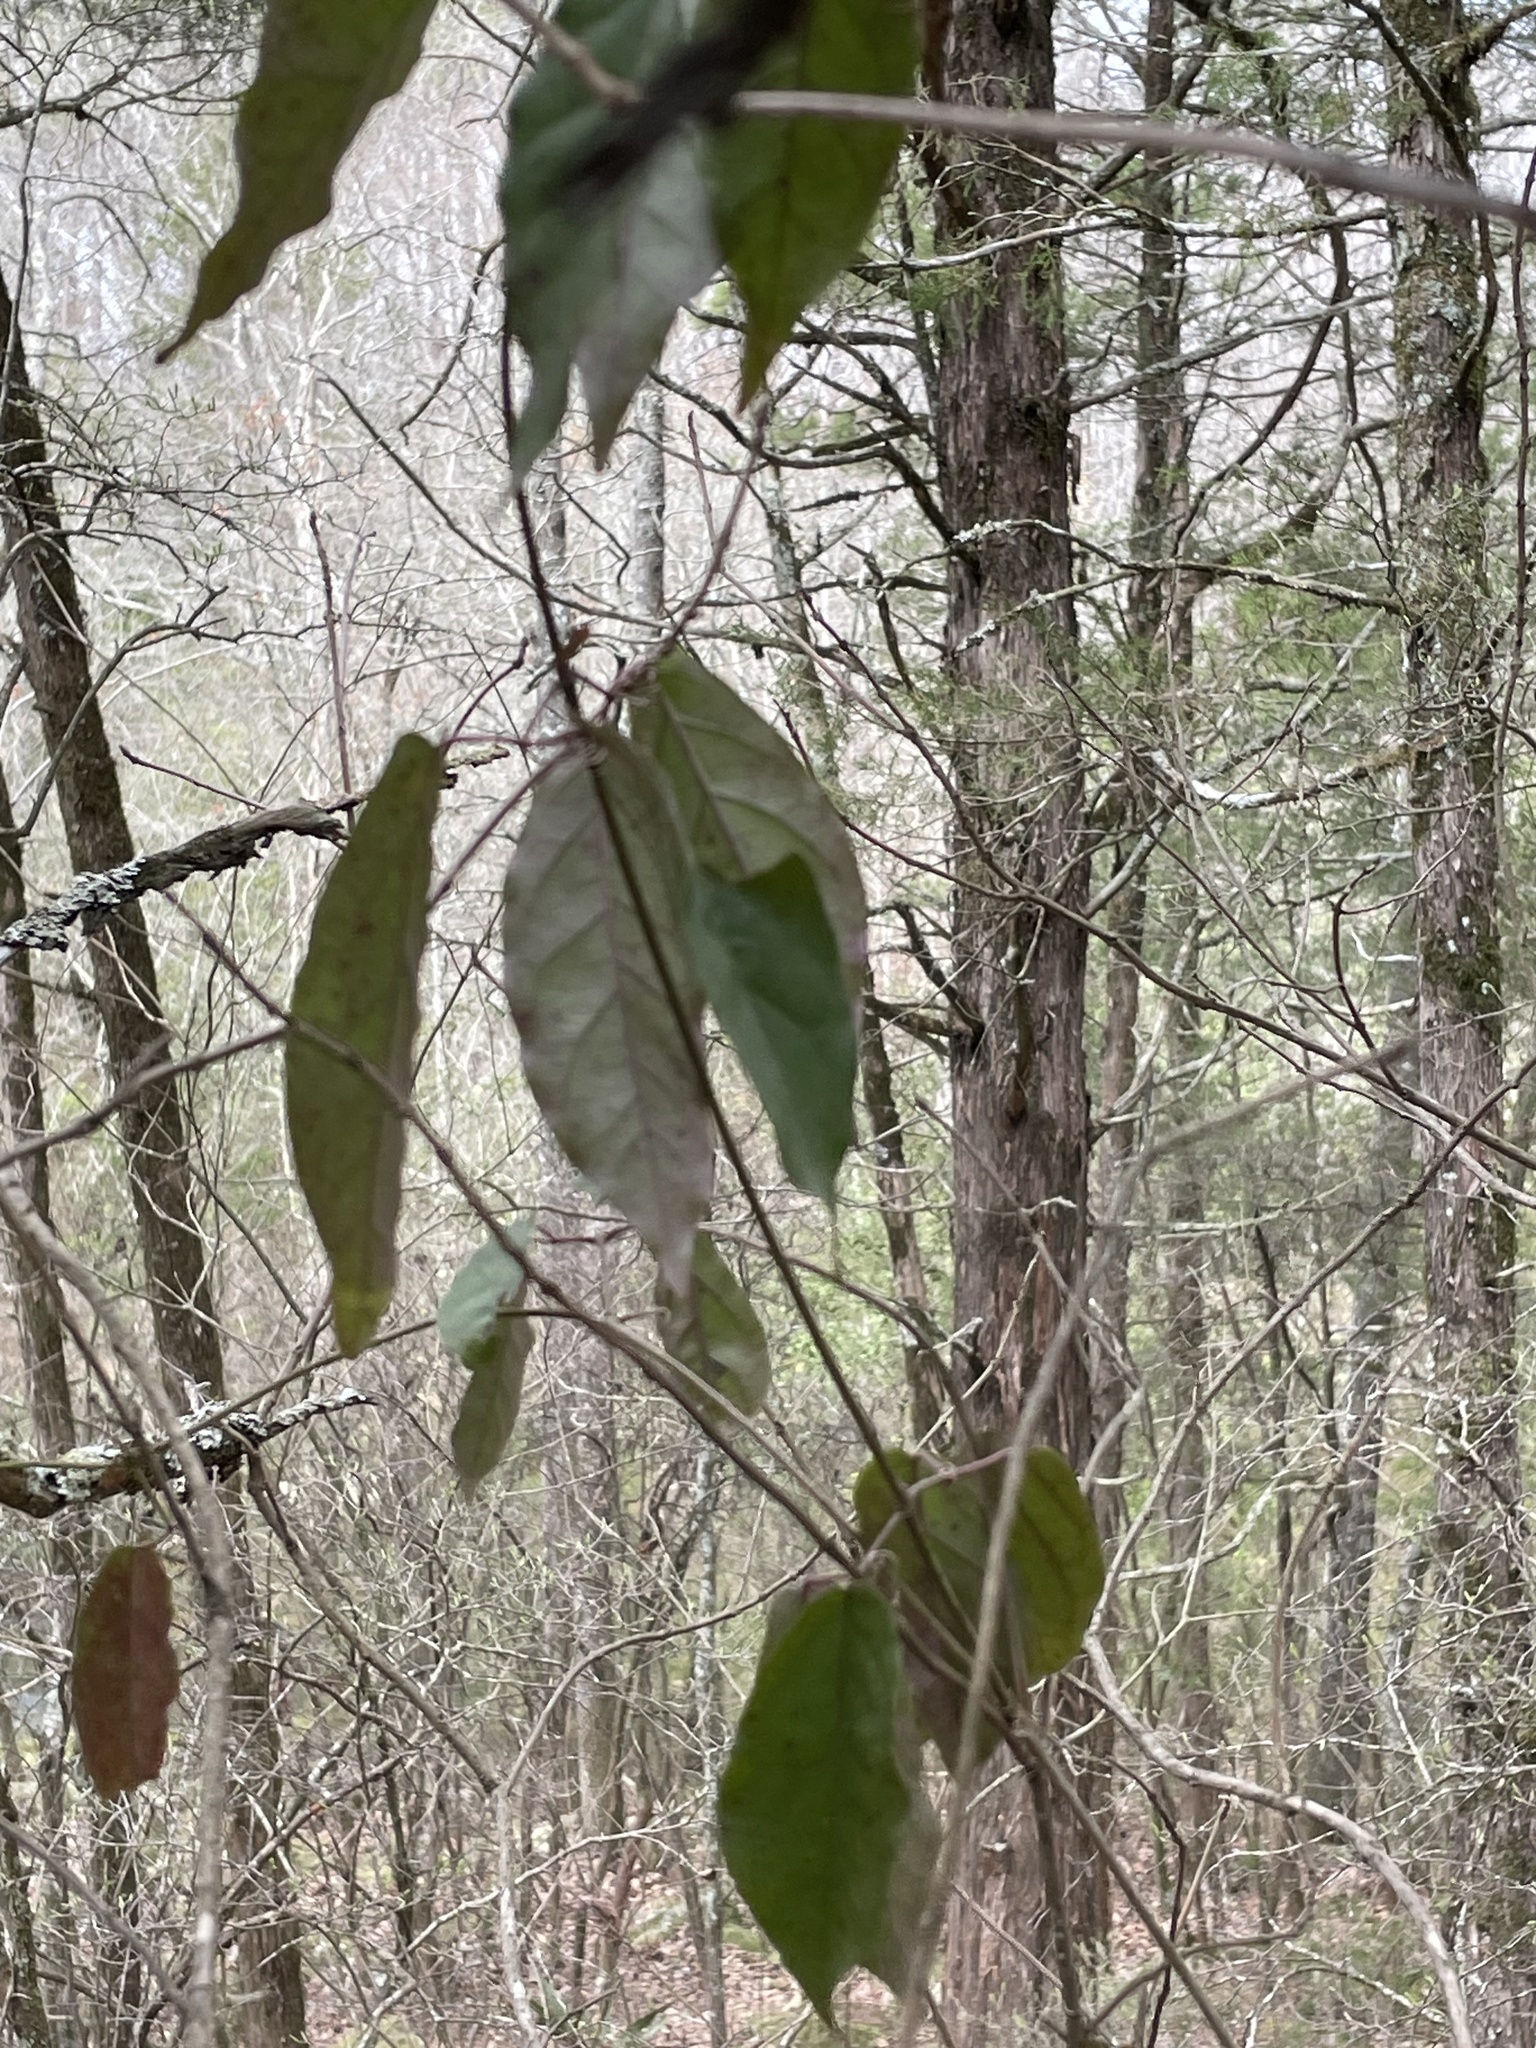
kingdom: Plantae
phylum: Tracheophyta
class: Magnoliopsida
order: Lamiales
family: Bignoniaceae
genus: Bignonia
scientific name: Bignonia capreolata
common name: Crossvine
